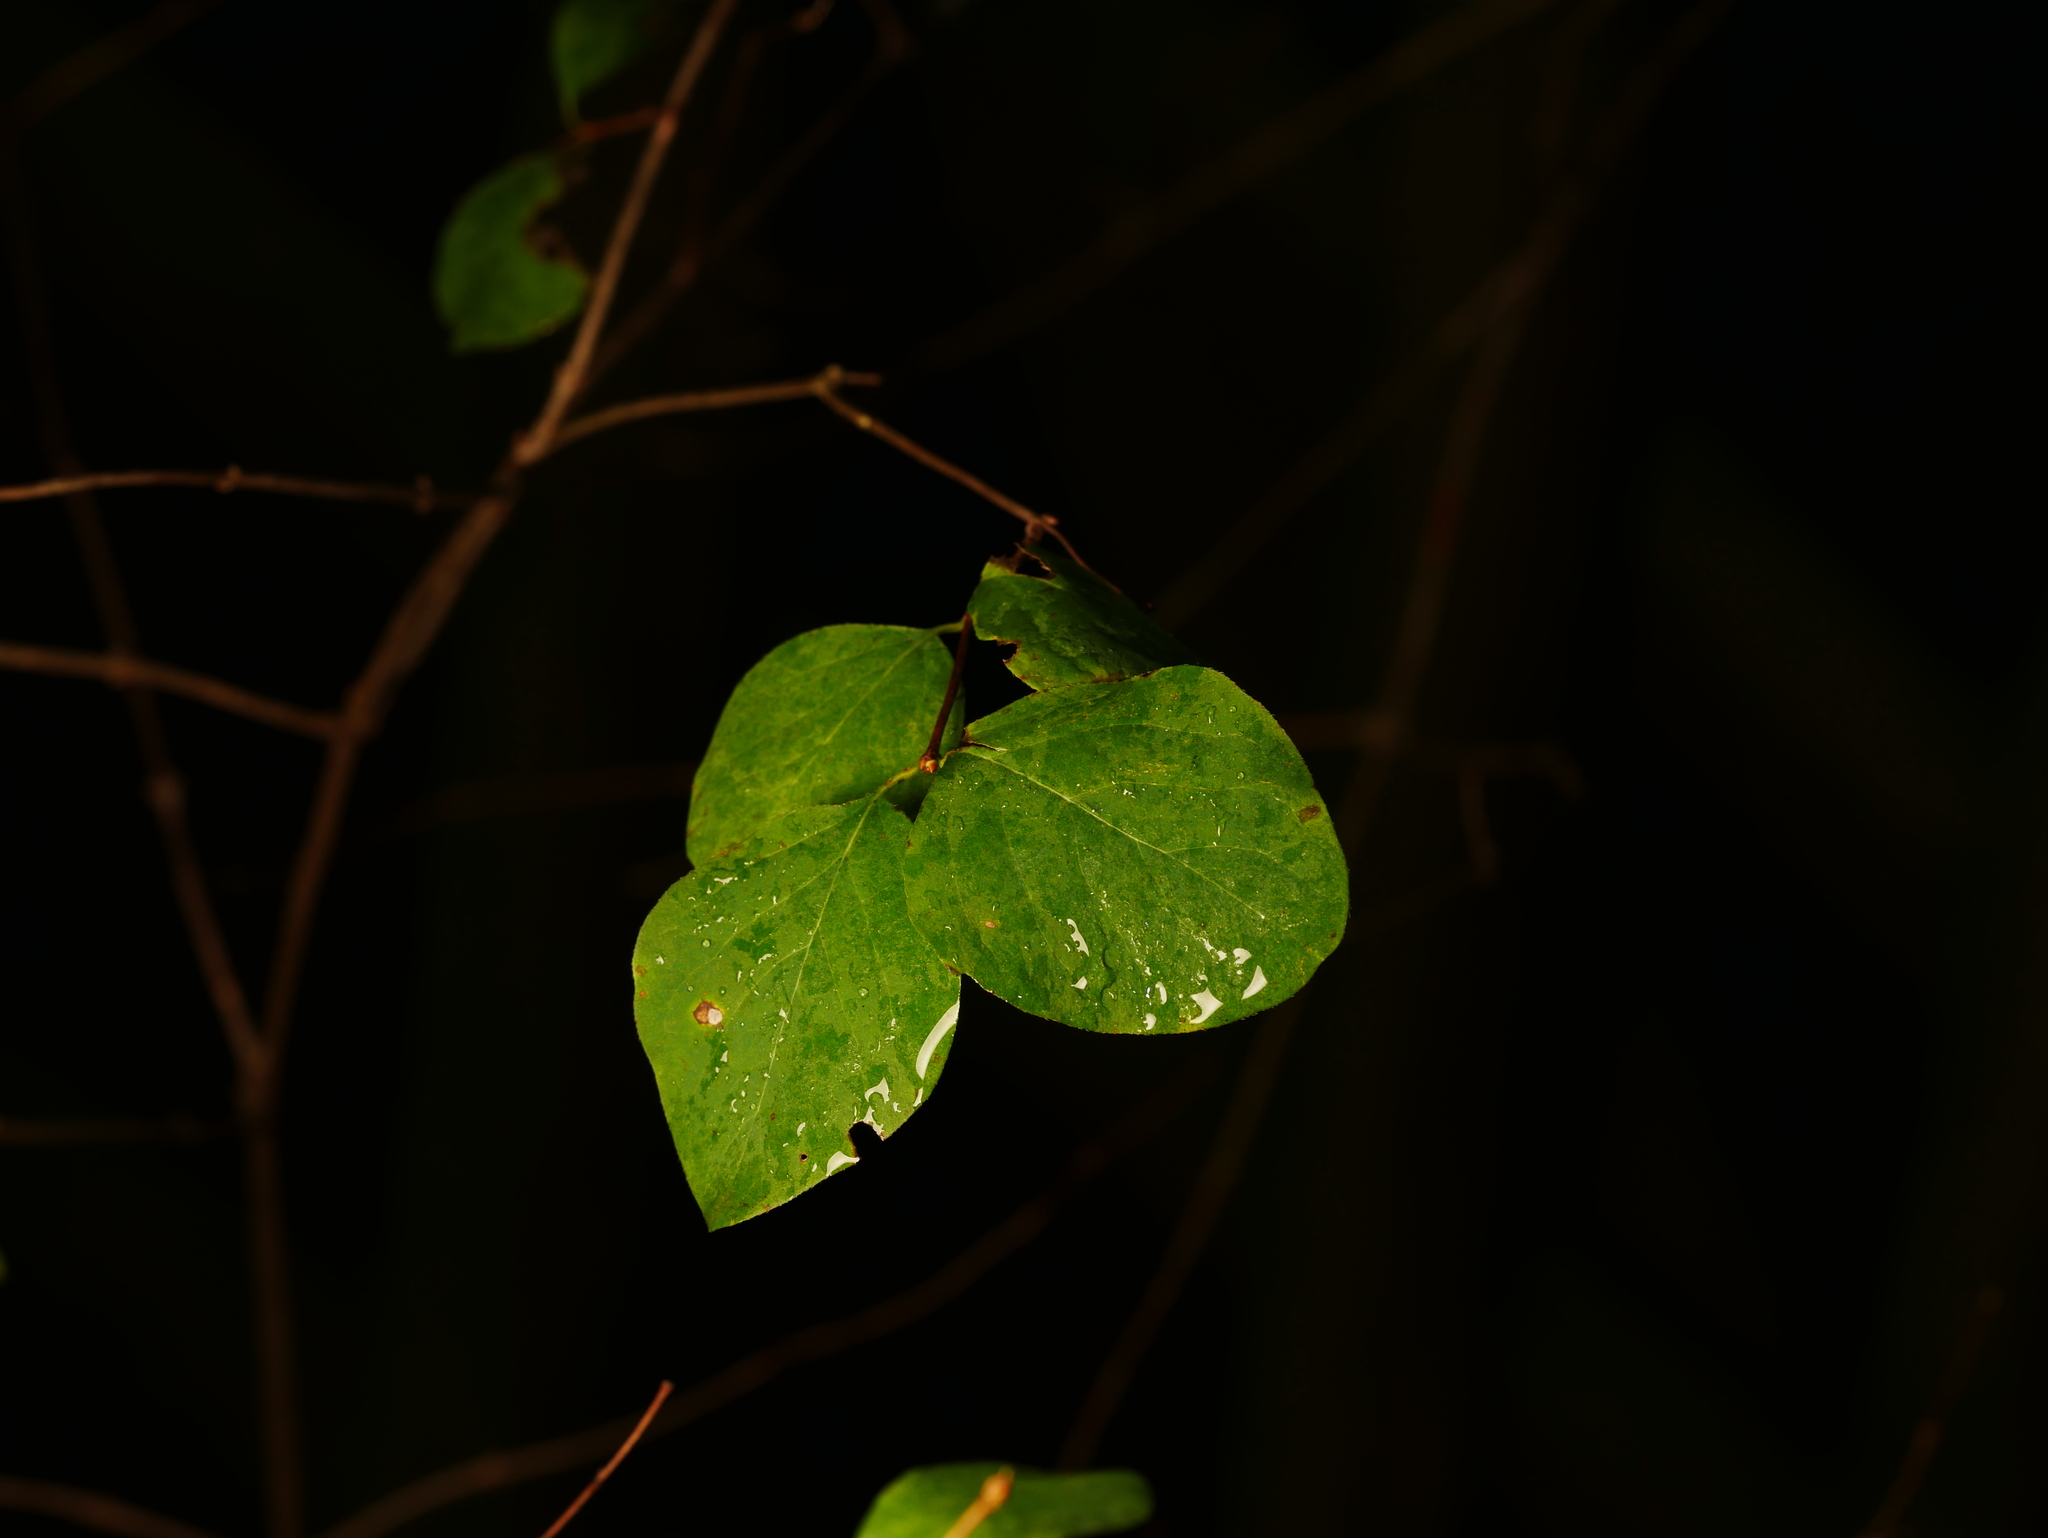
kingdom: Plantae
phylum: Tracheophyta
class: Magnoliopsida
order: Dipsacales
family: Caprifoliaceae
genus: Symphoricarpos
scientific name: Symphoricarpos albus
